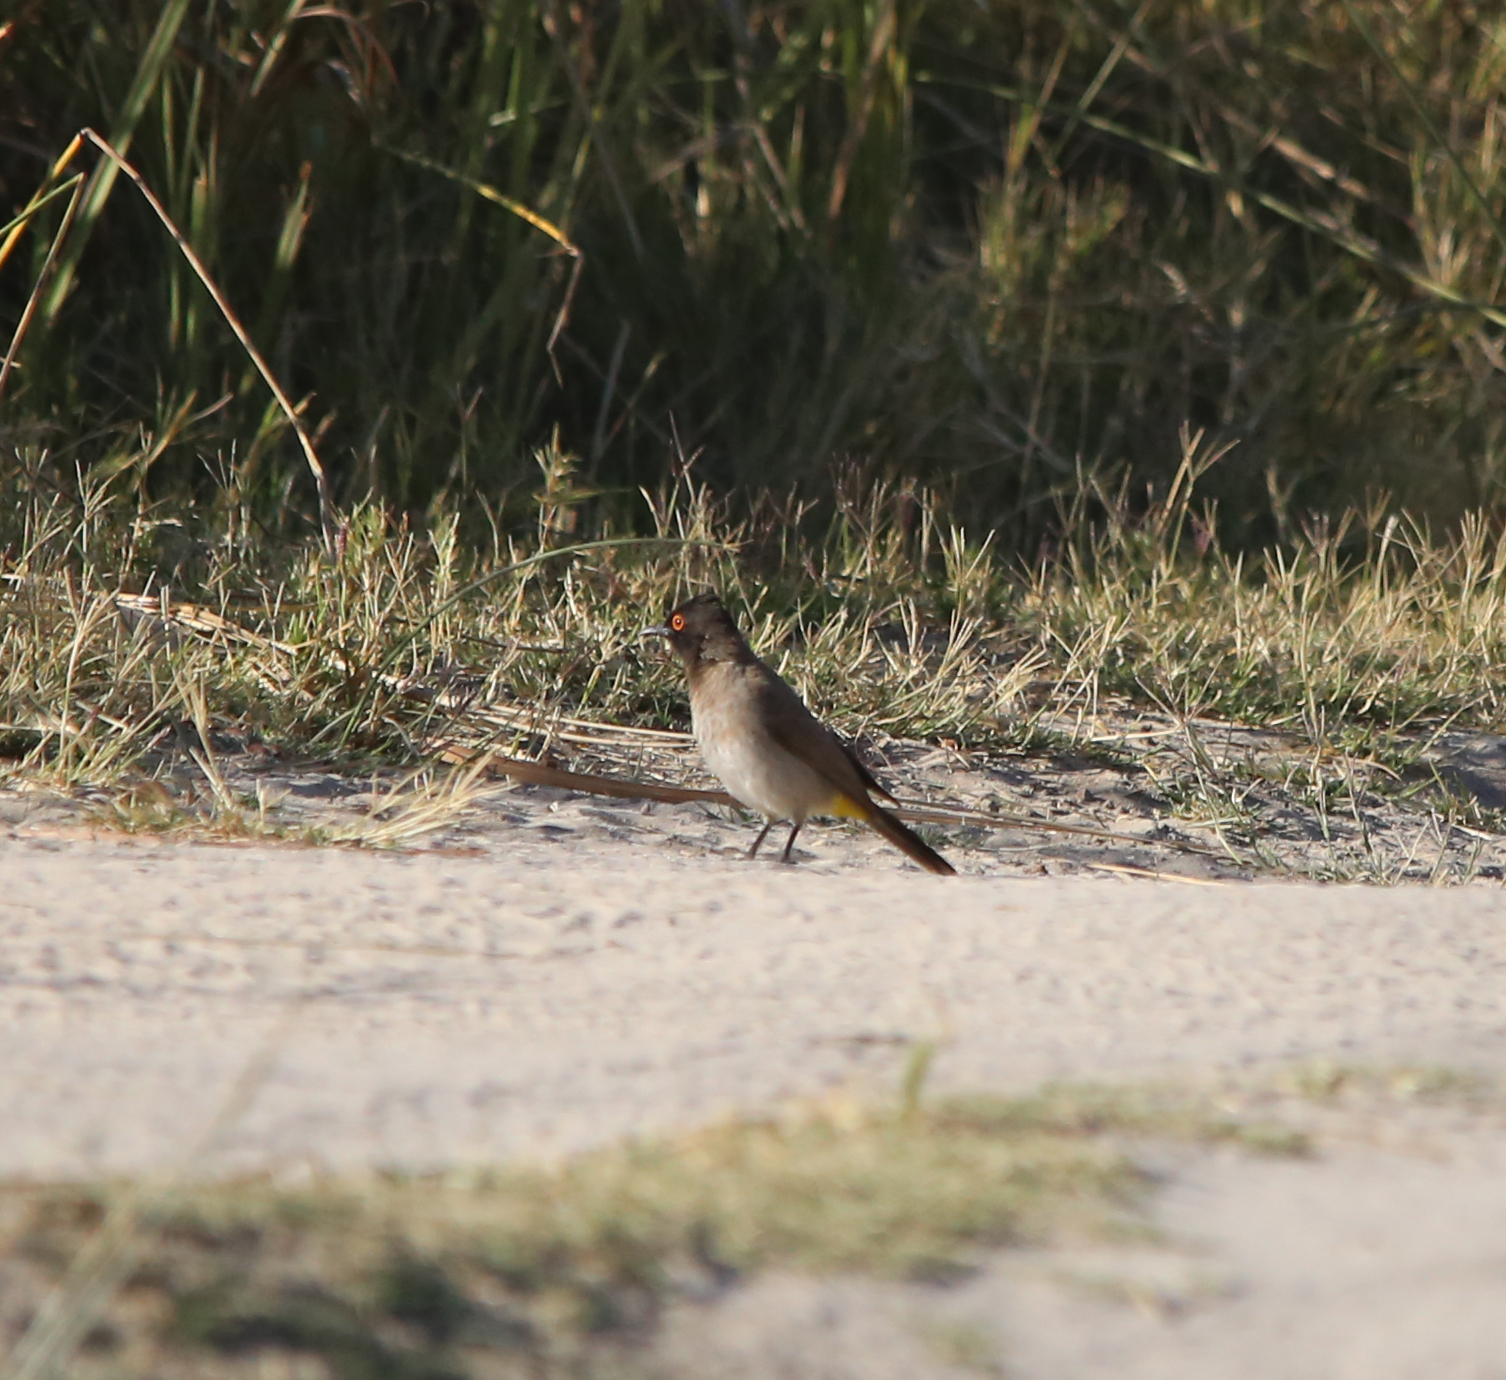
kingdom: Animalia
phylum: Chordata
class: Aves
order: Passeriformes
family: Pycnonotidae
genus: Pycnonotus
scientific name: Pycnonotus nigricans
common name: African red-eyed bulbul
